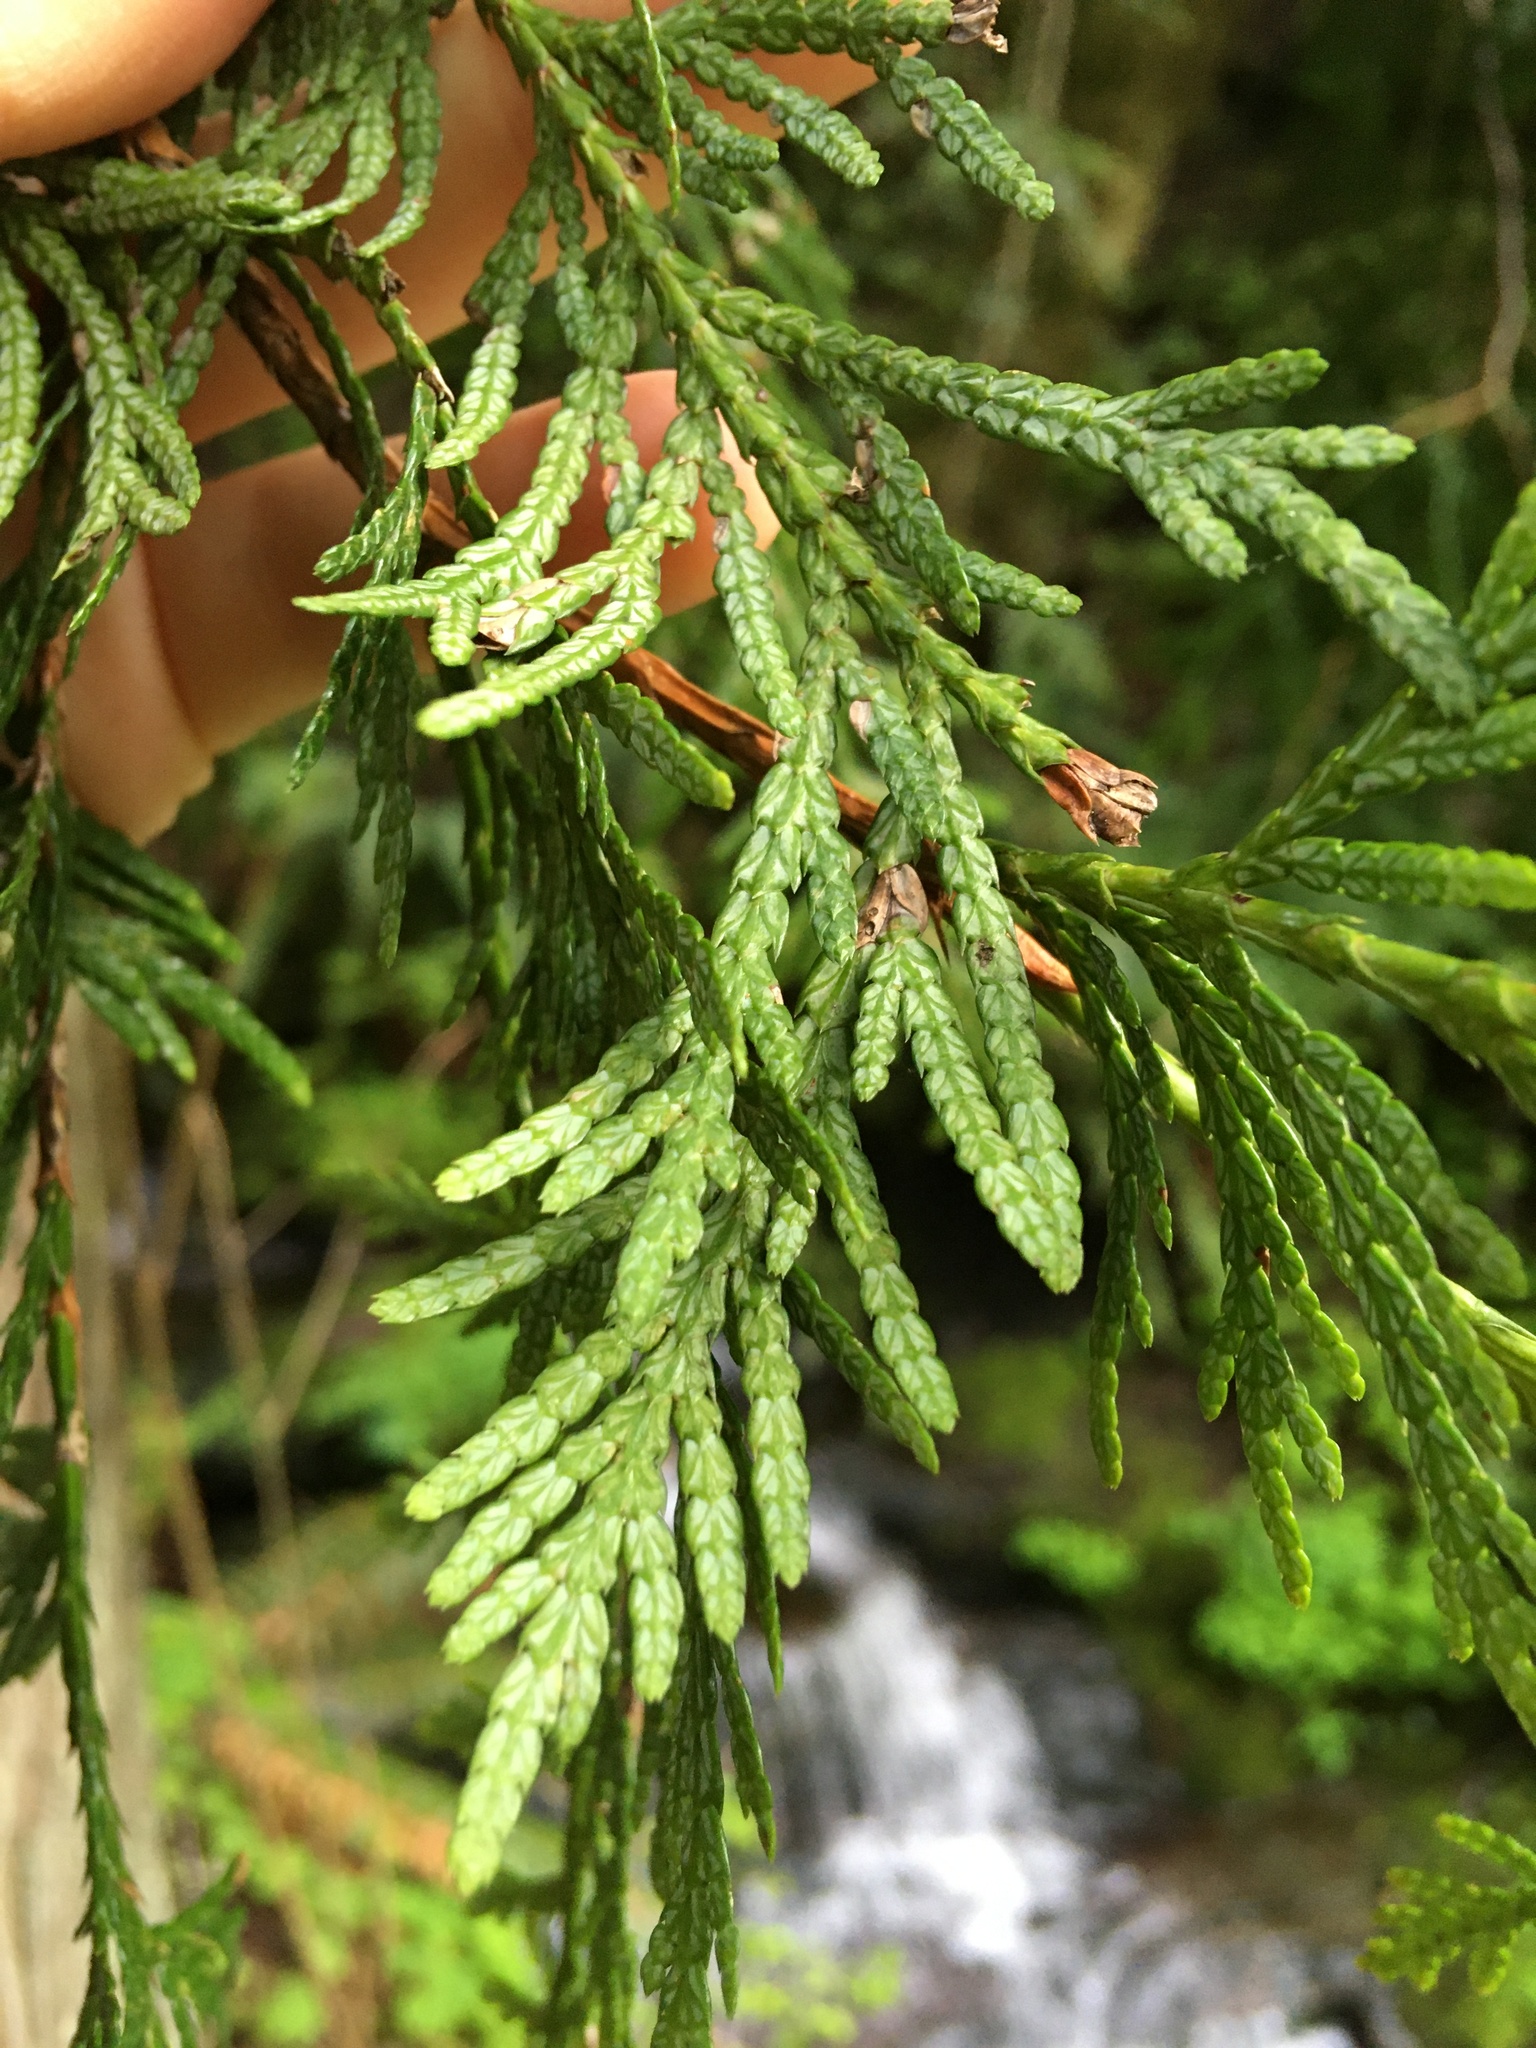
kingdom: Plantae
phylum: Tracheophyta
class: Pinopsida
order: Pinales
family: Cupressaceae
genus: Thuja
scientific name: Thuja plicata
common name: Western red-cedar
